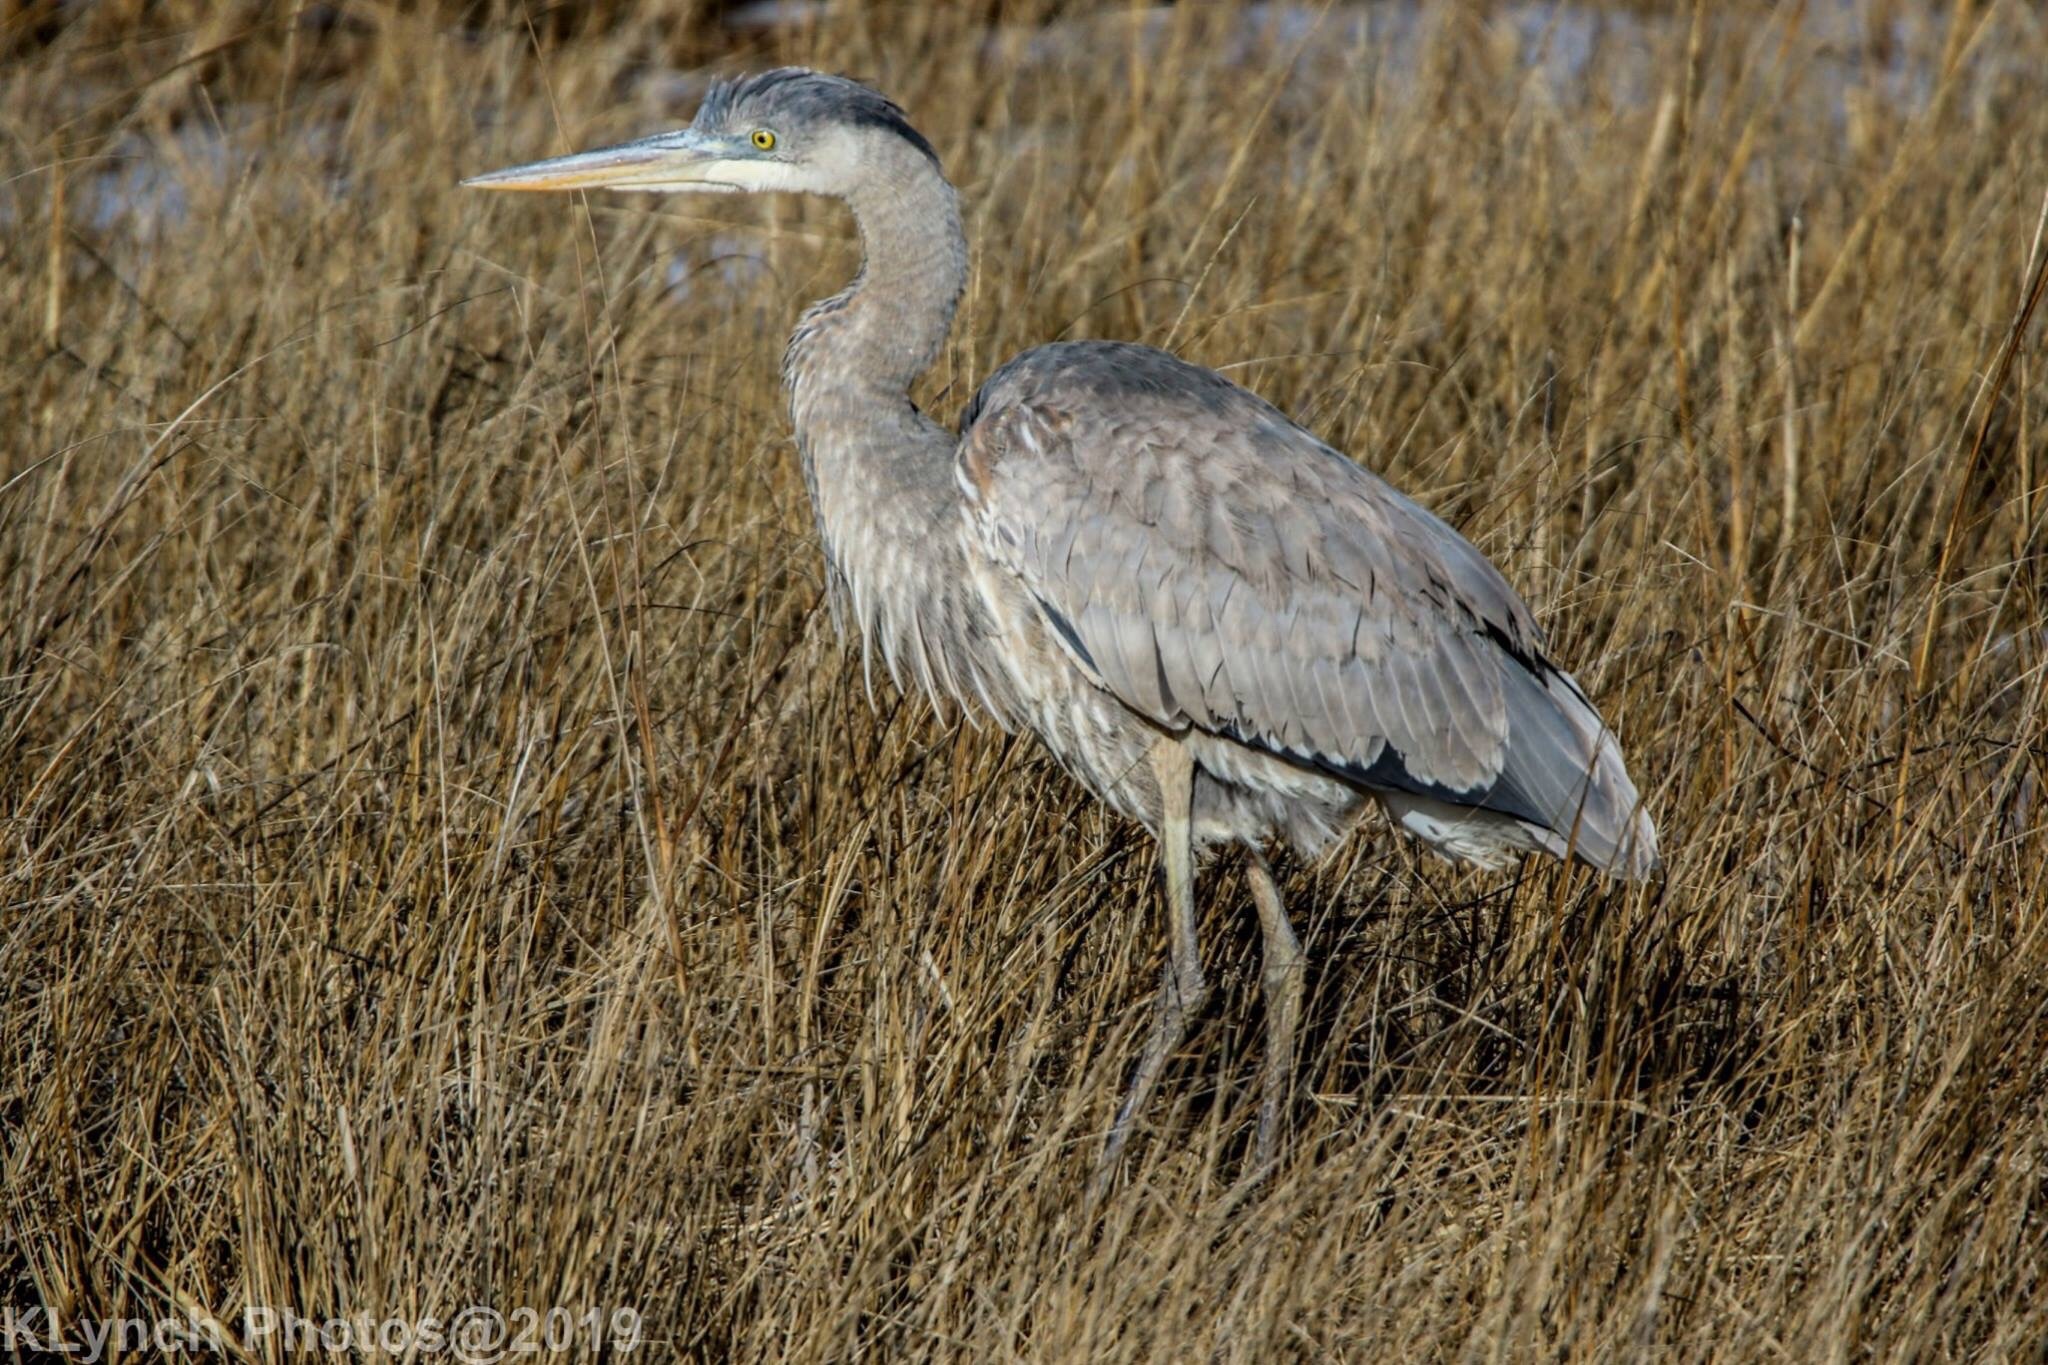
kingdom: Animalia
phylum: Chordata
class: Aves
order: Pelecaniformes
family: Ardeidae
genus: Ardea
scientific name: Ardea herodias
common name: Great blue heron
